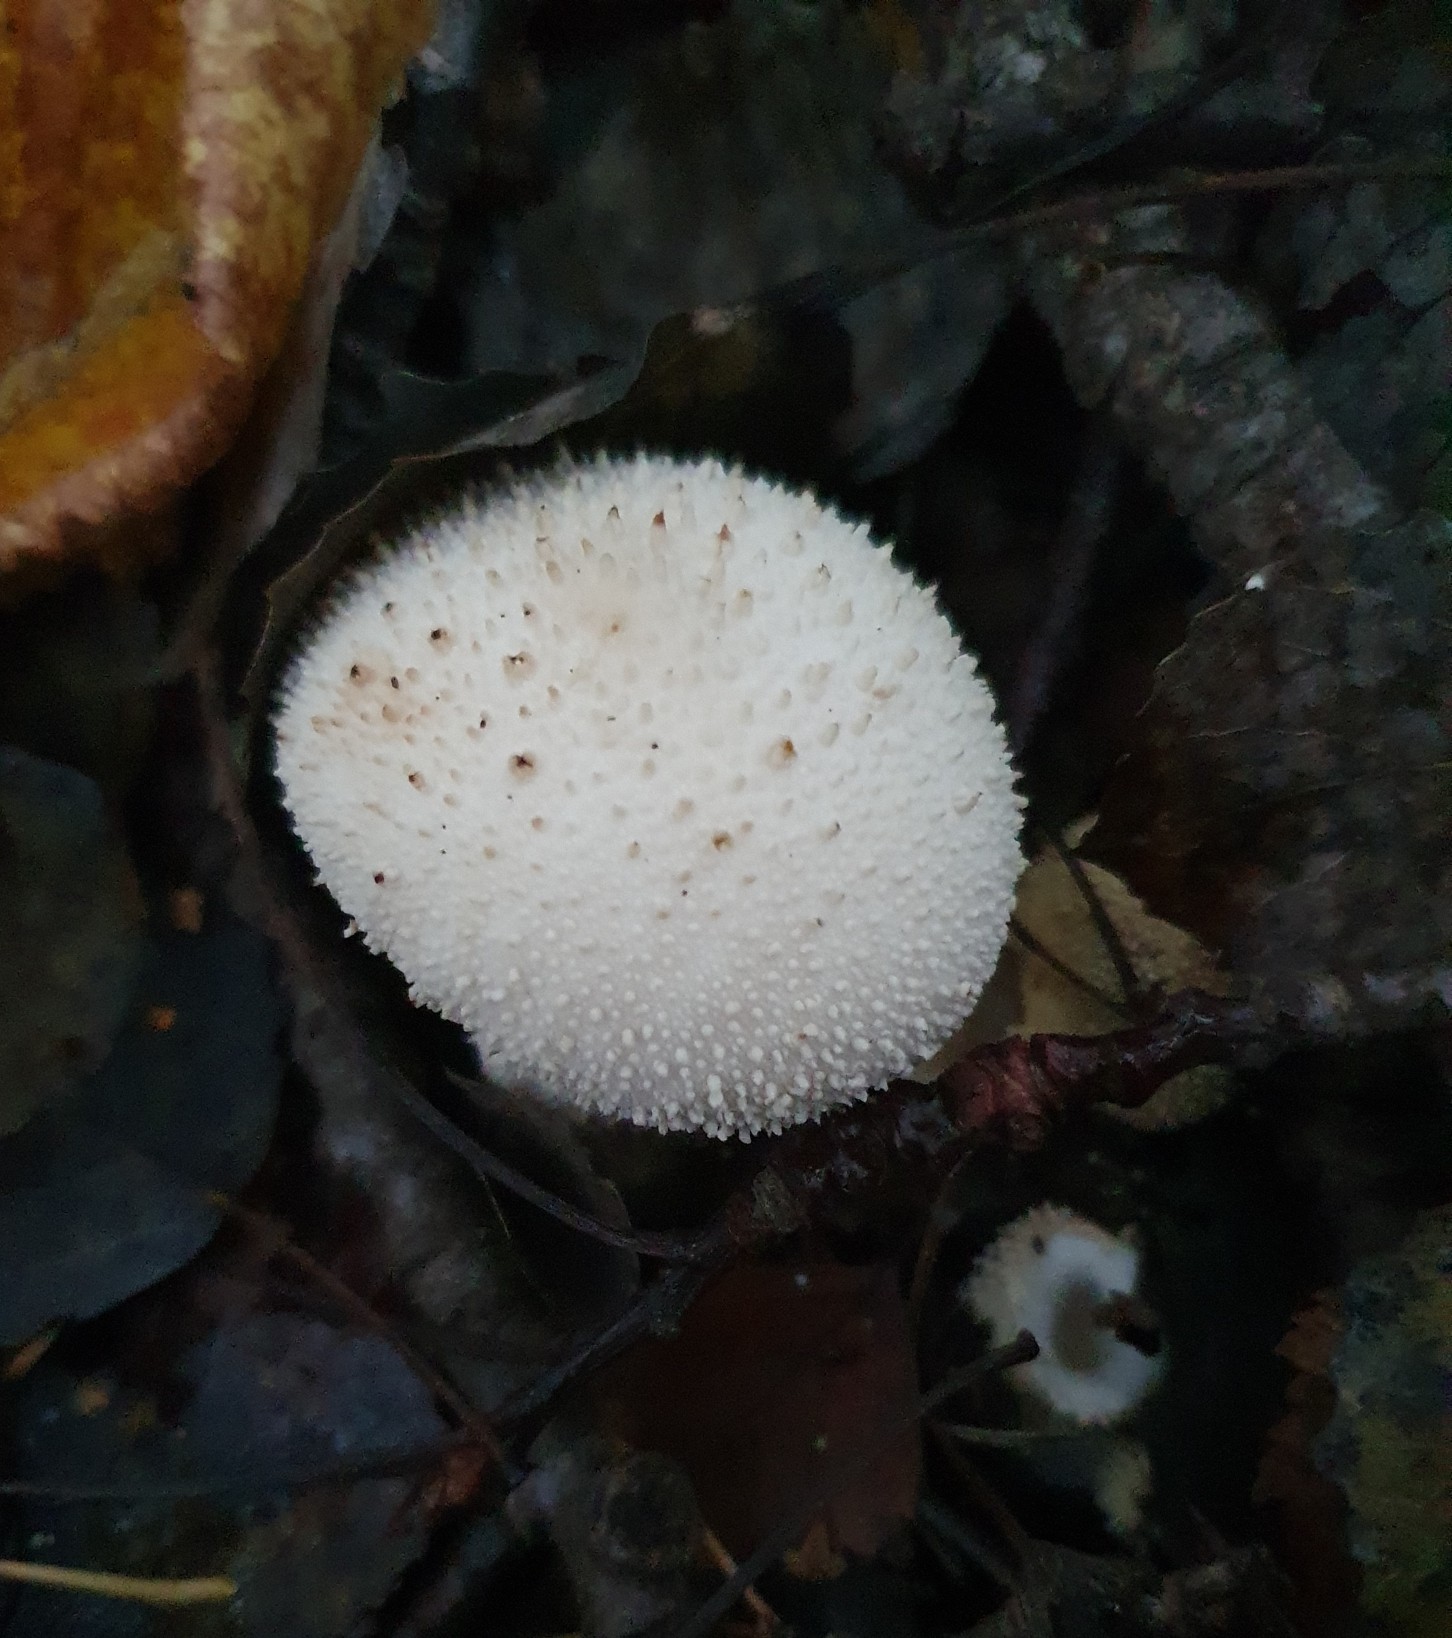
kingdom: Fungi
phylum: Basidiomycota
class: Agaricomycetes
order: Agaricales
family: Lycoperdaceae
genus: Lycoperdon
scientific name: Lycoperdon perlatum
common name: Common puffball
